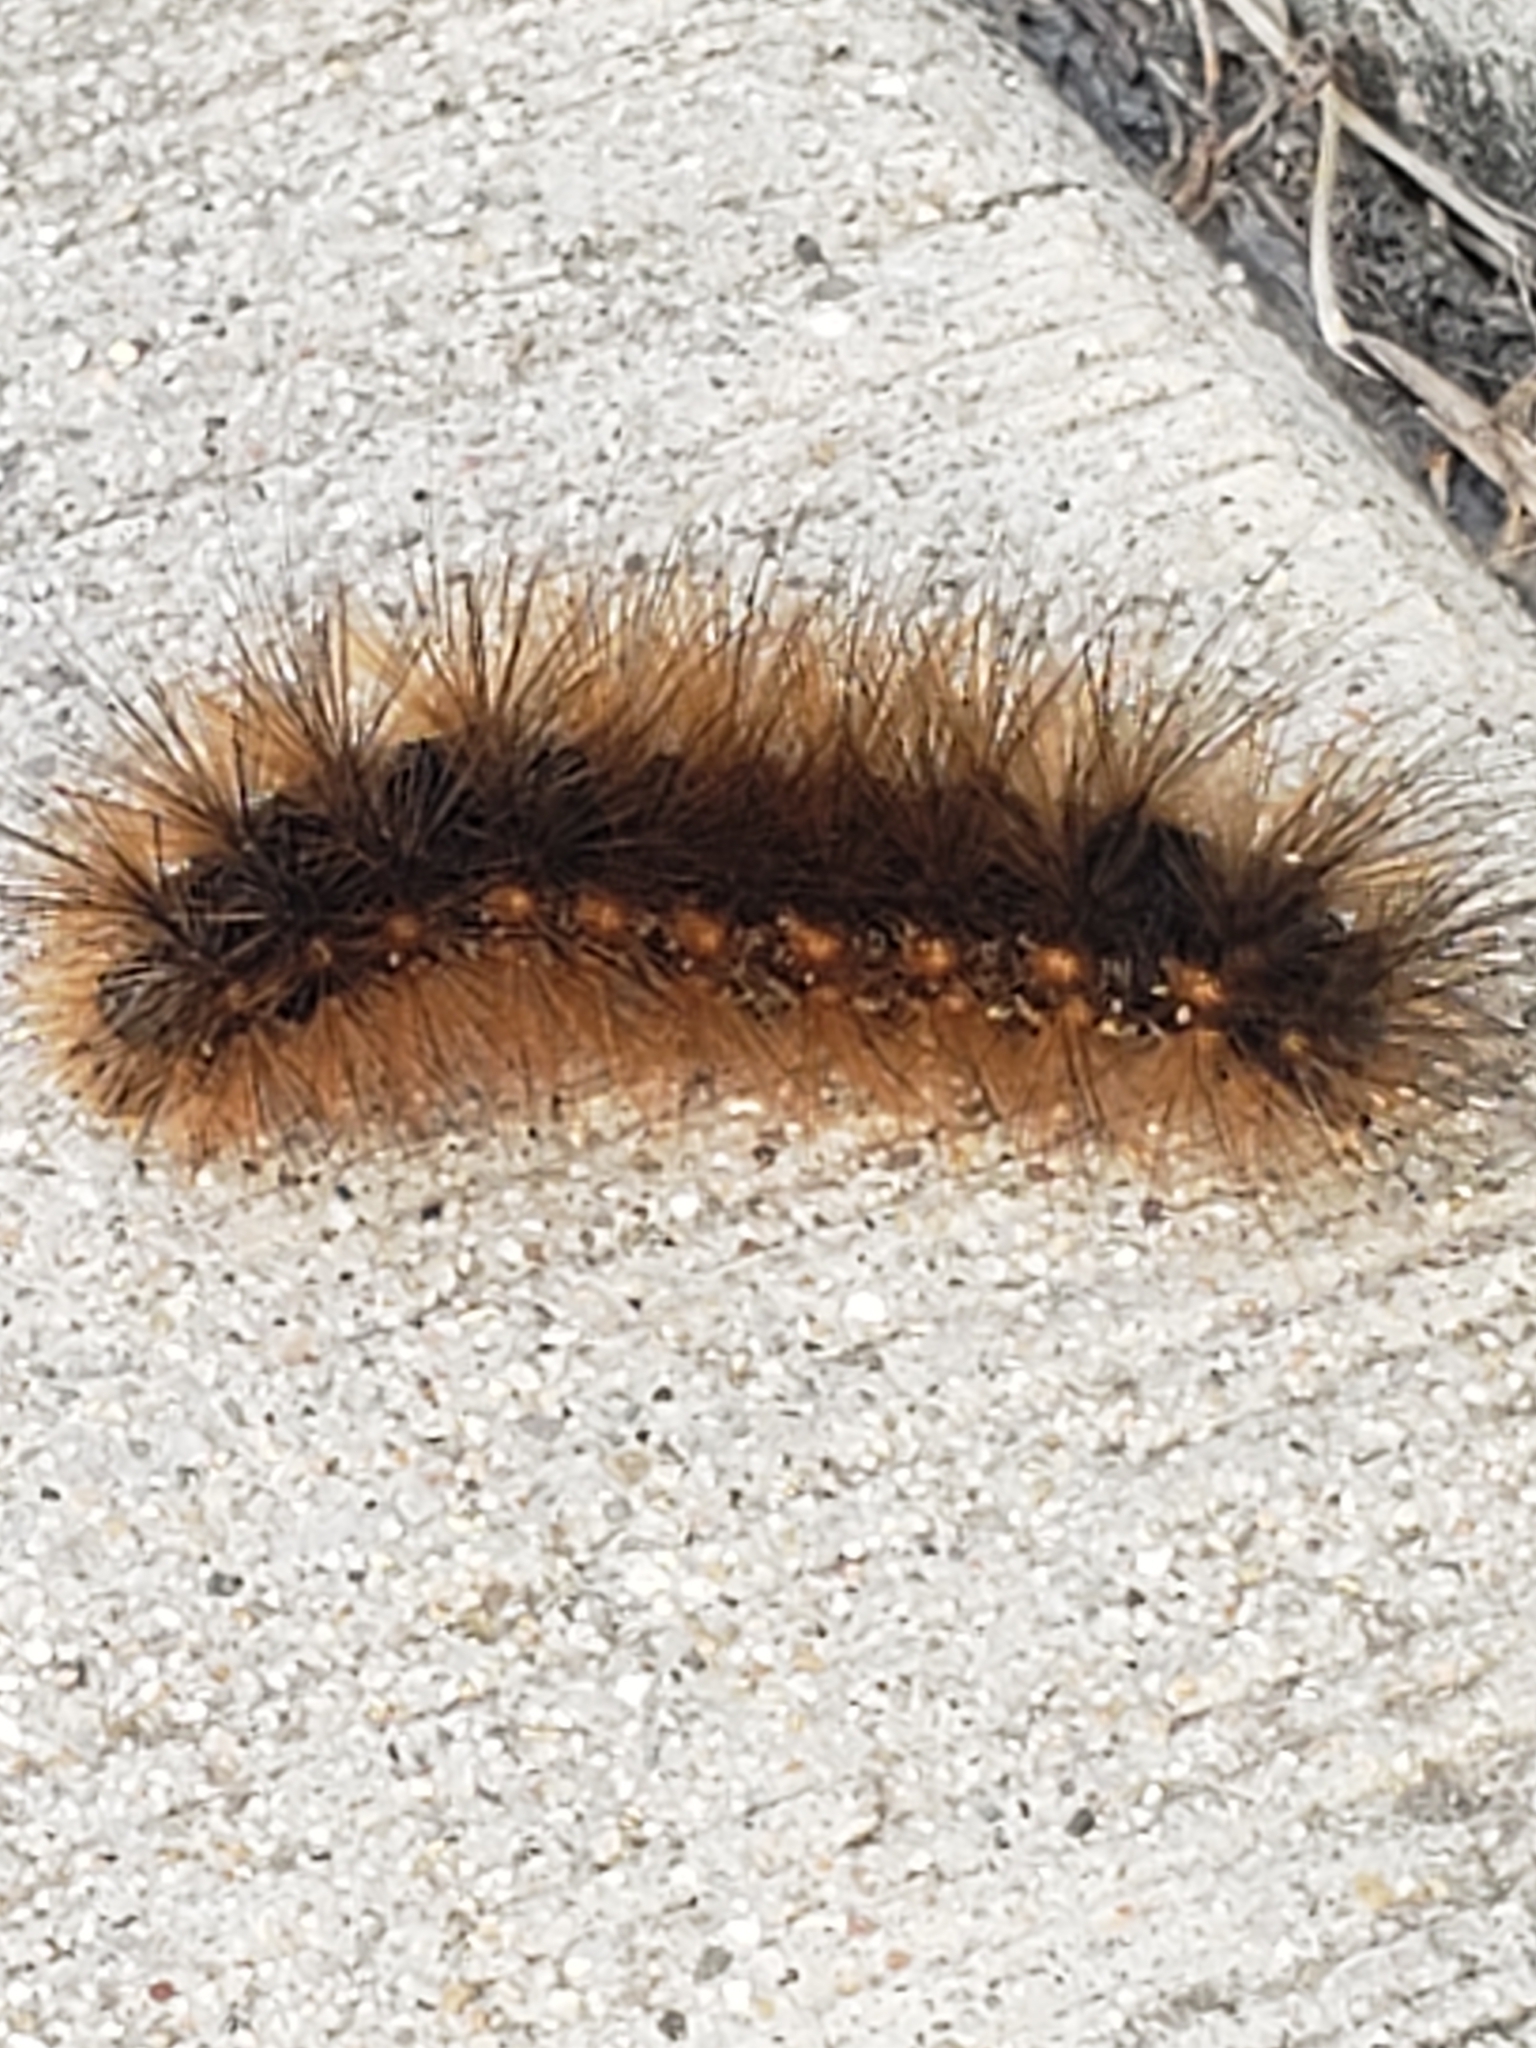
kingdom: Animalia
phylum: Arthropoda
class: Insecta
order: Lepidoptera
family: Erebidae
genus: Estigmene
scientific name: Estigmene acrea
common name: Salt marsh moth
